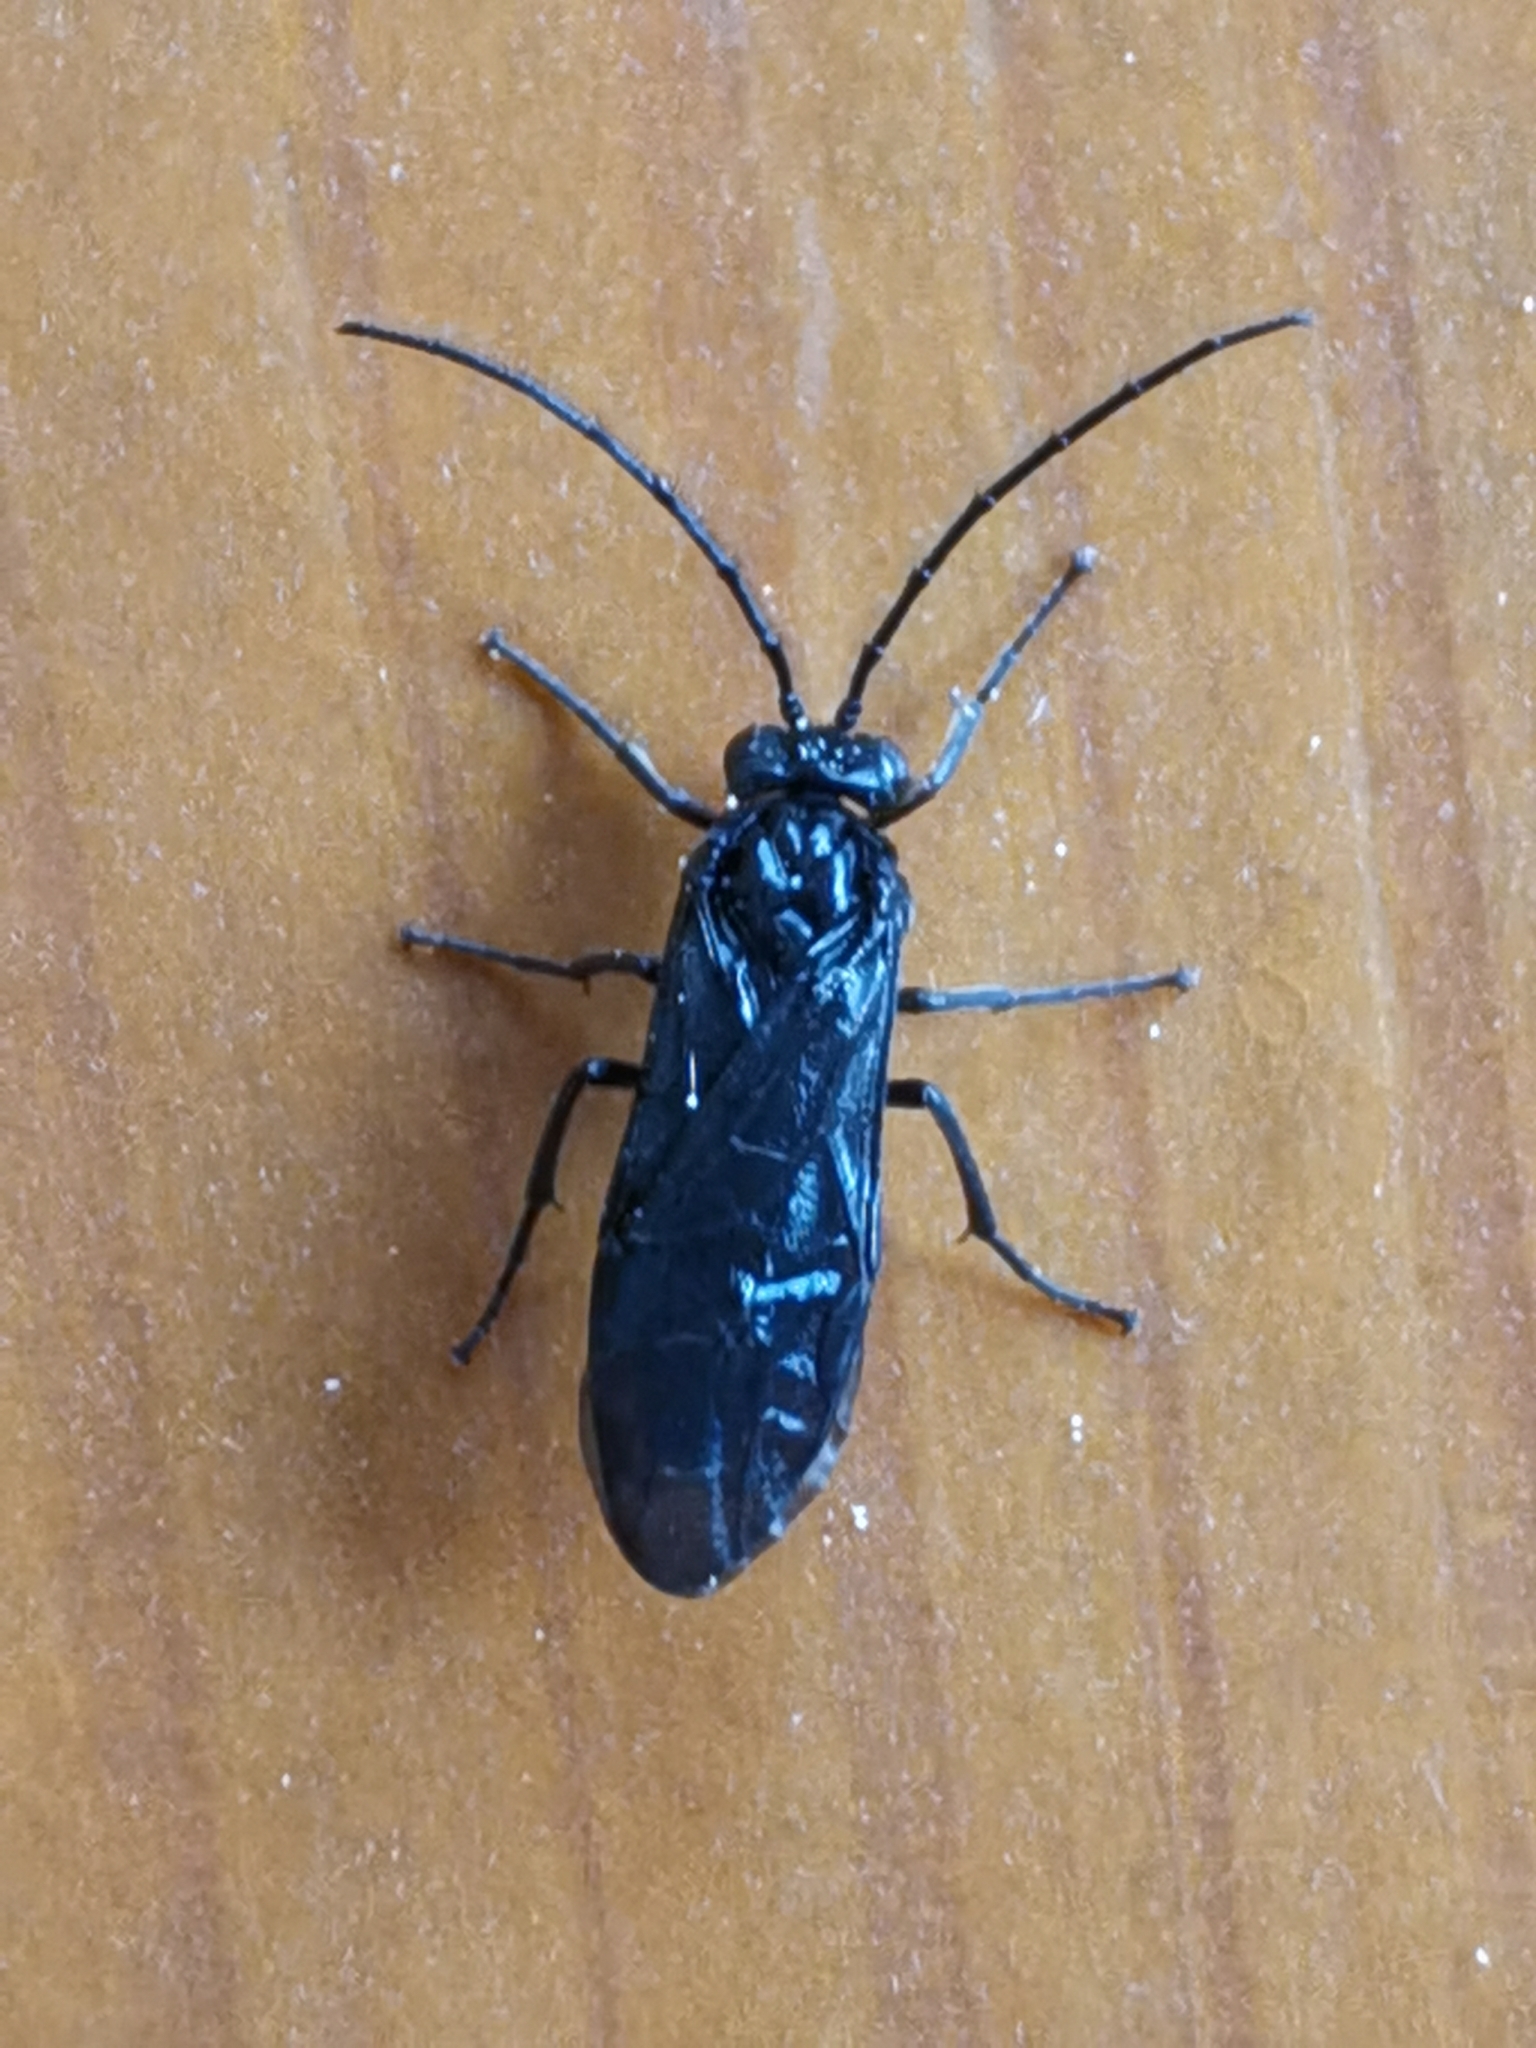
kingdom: Animalia
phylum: Arthropoda
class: Insecta
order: Hymenoptera
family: Tenthredinidae
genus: Phymatocera
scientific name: Phymatocera aterrima
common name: Solomon's-seal sawfly
